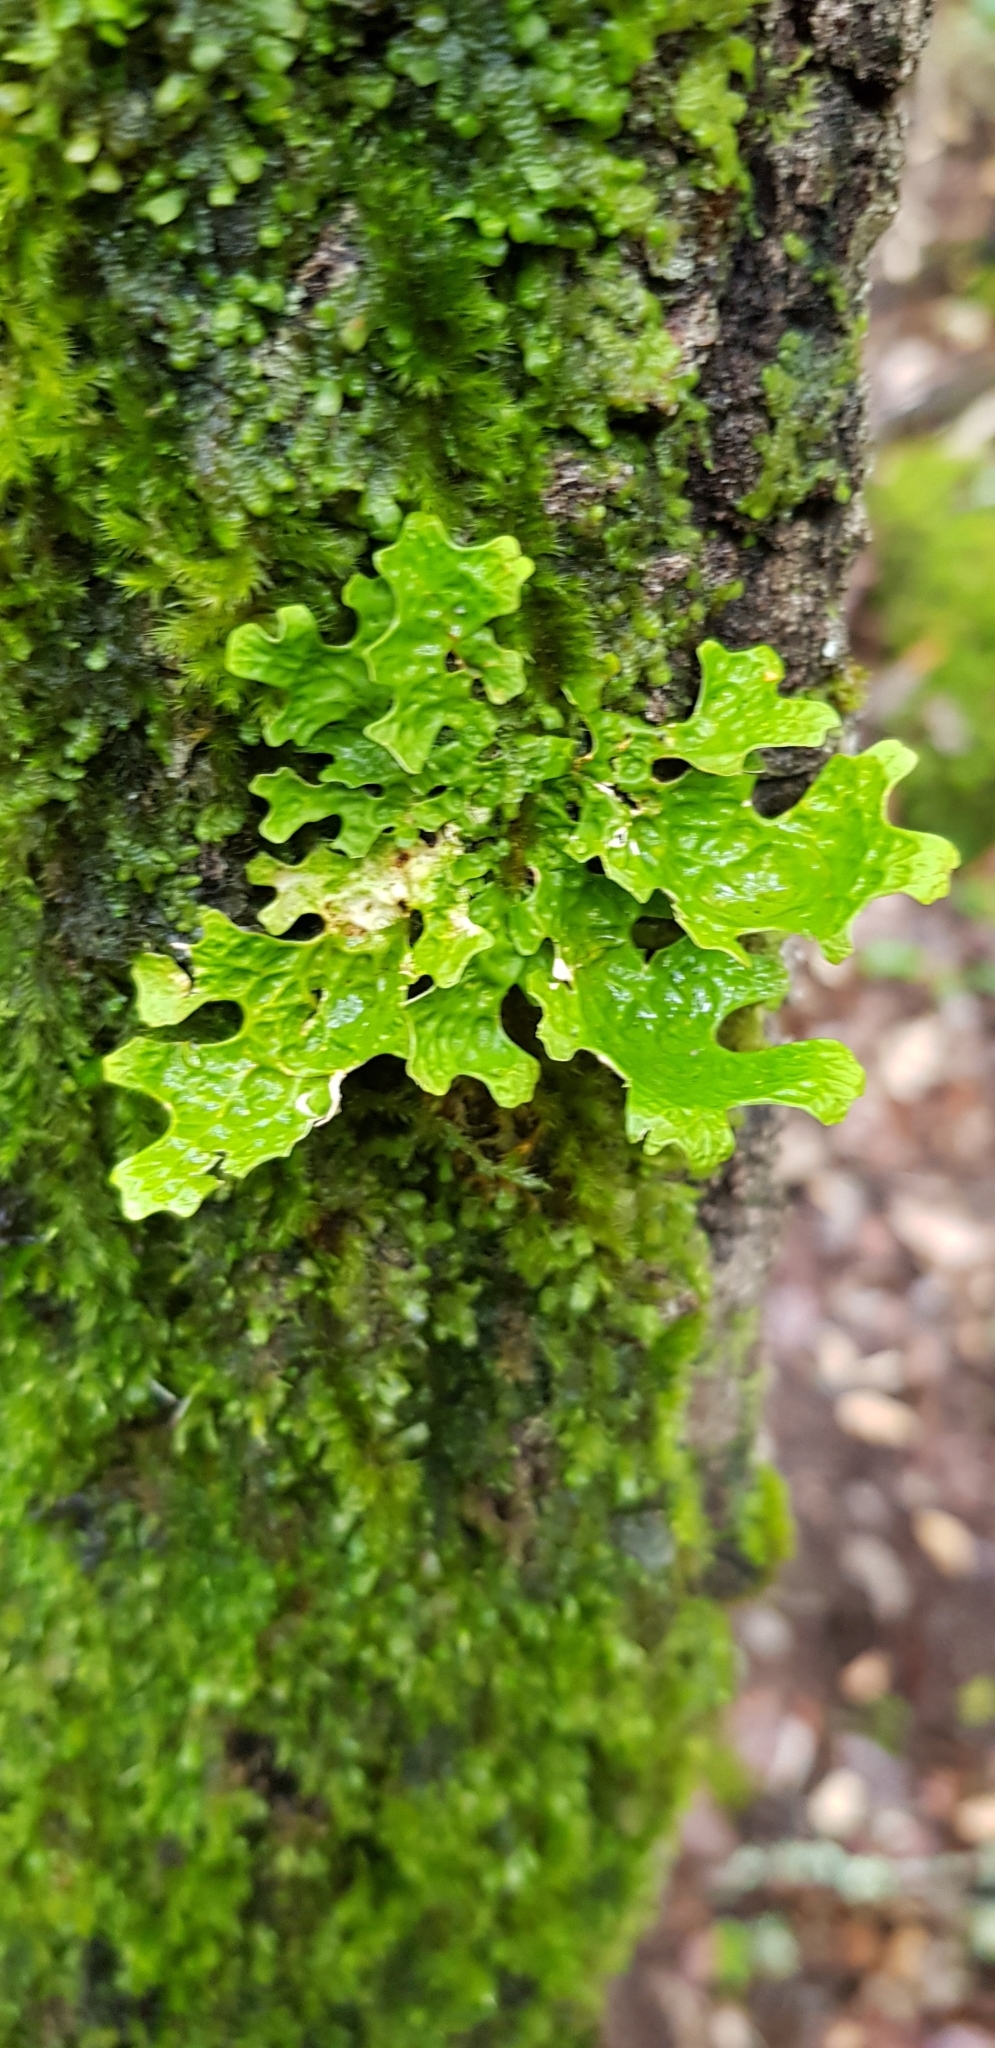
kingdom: Fungi
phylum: Ascomycota
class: Lecanoromycetes
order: Peltigerales
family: Lobariaceae
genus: Lobaria
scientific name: Lobaria pulmonaria
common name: Lungwort
